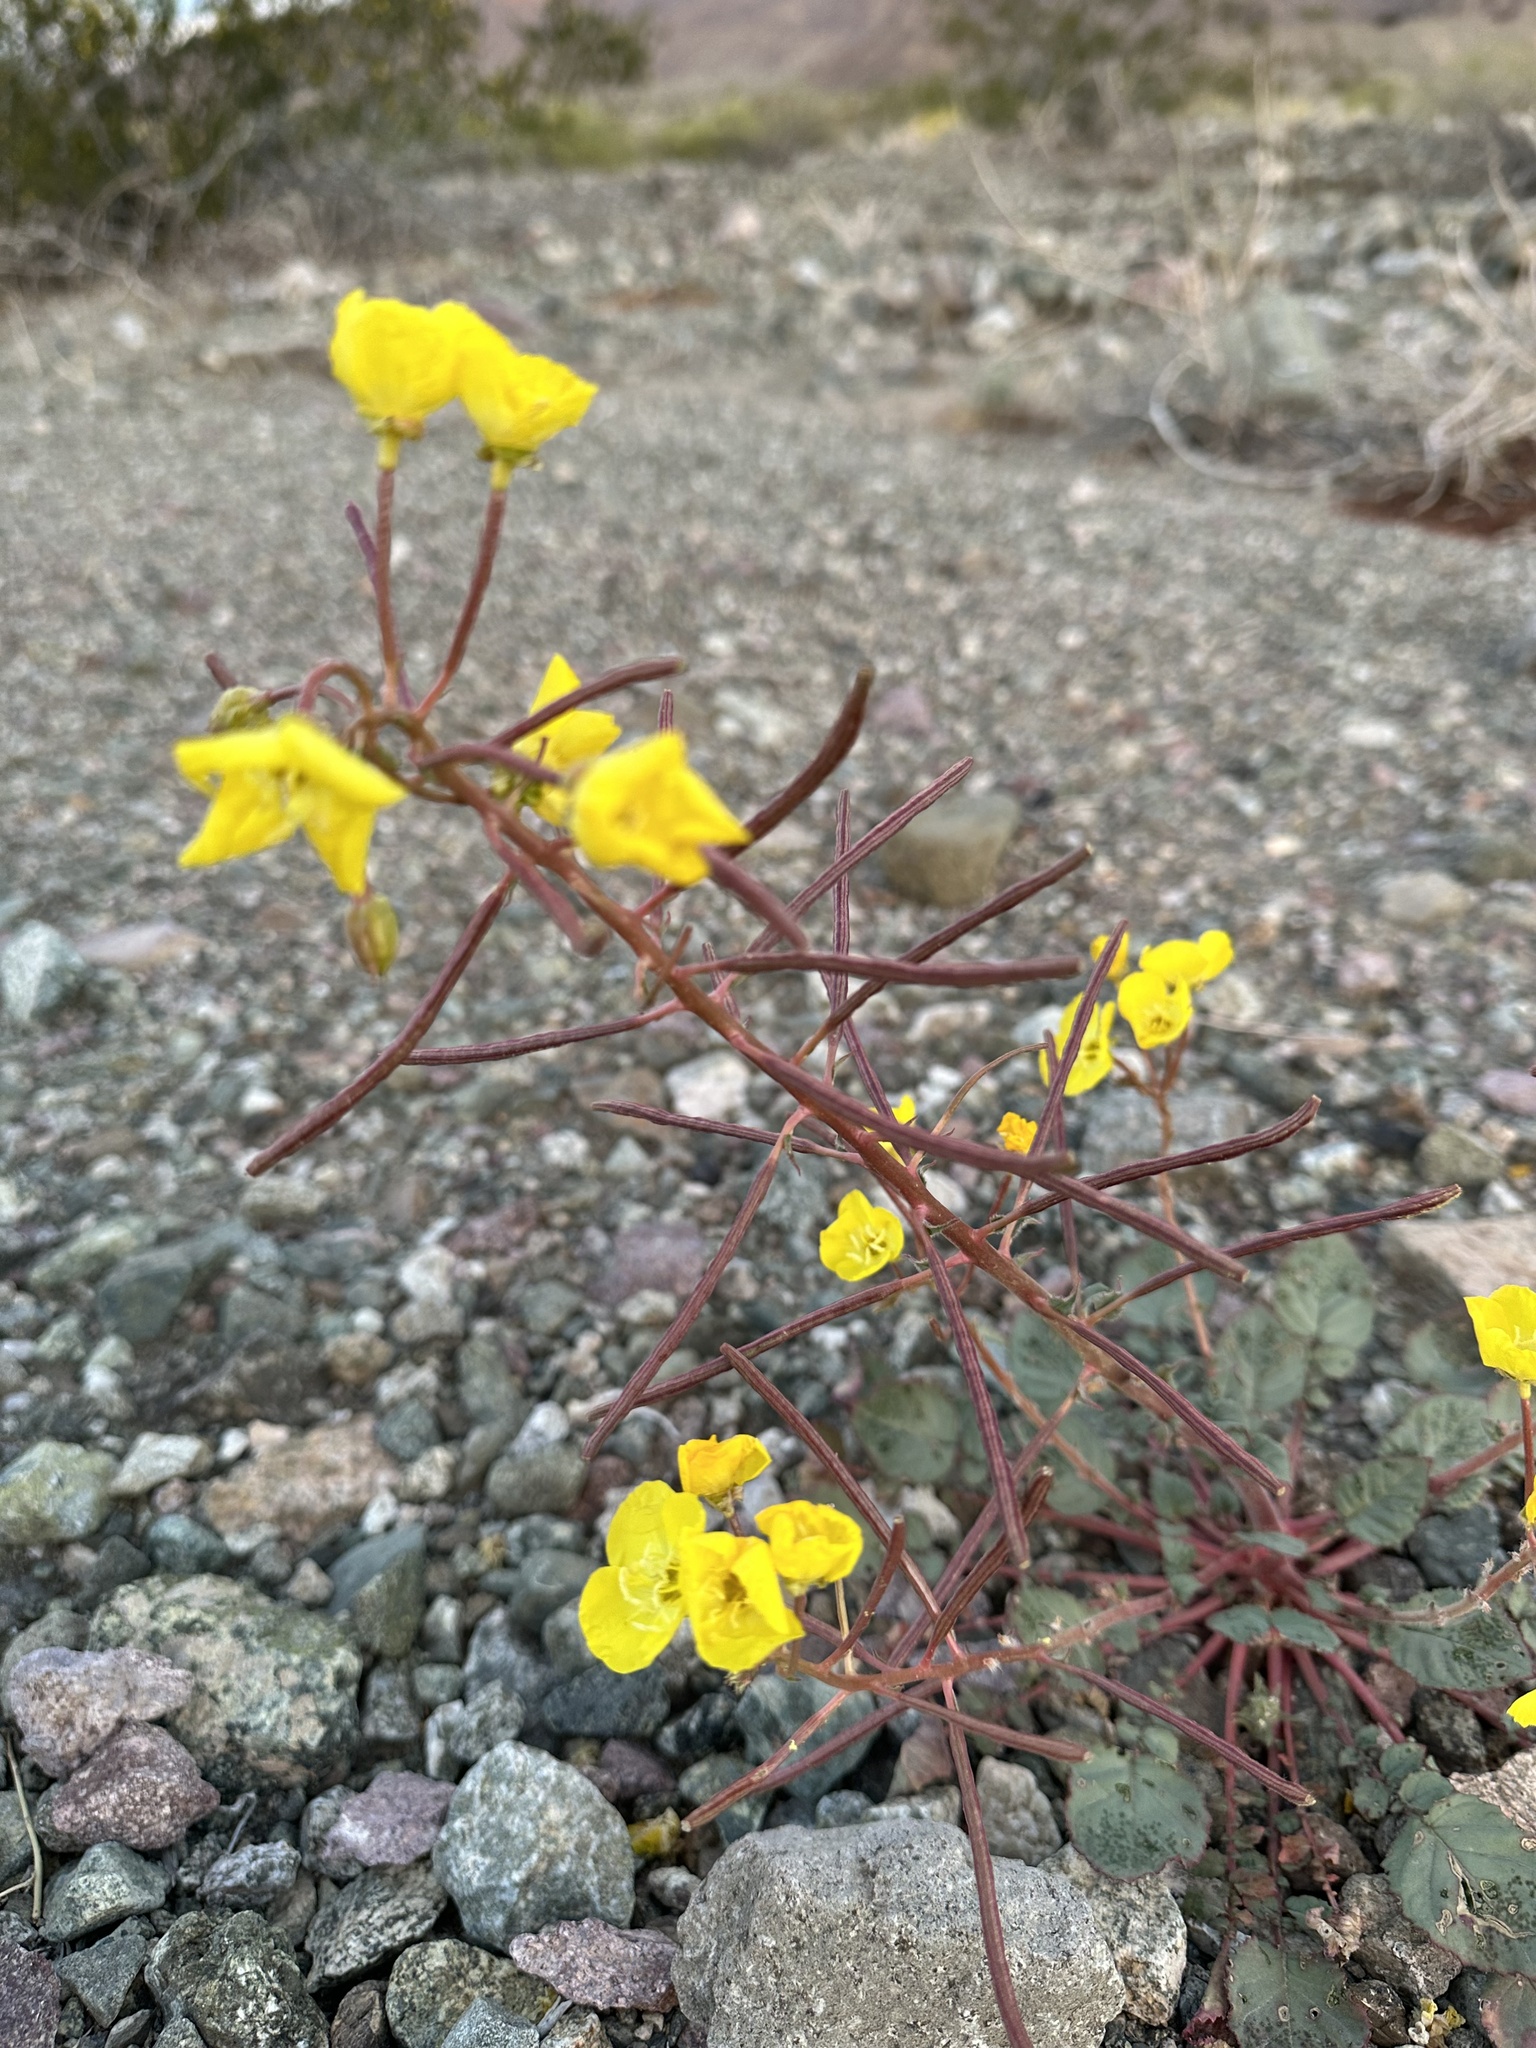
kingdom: Plantae
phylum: Tracheophyta
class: Magnoliopsida
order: Myrtales
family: Onagraceae
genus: Chylismia
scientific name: Chylismia brevipes
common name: Yellow cups
